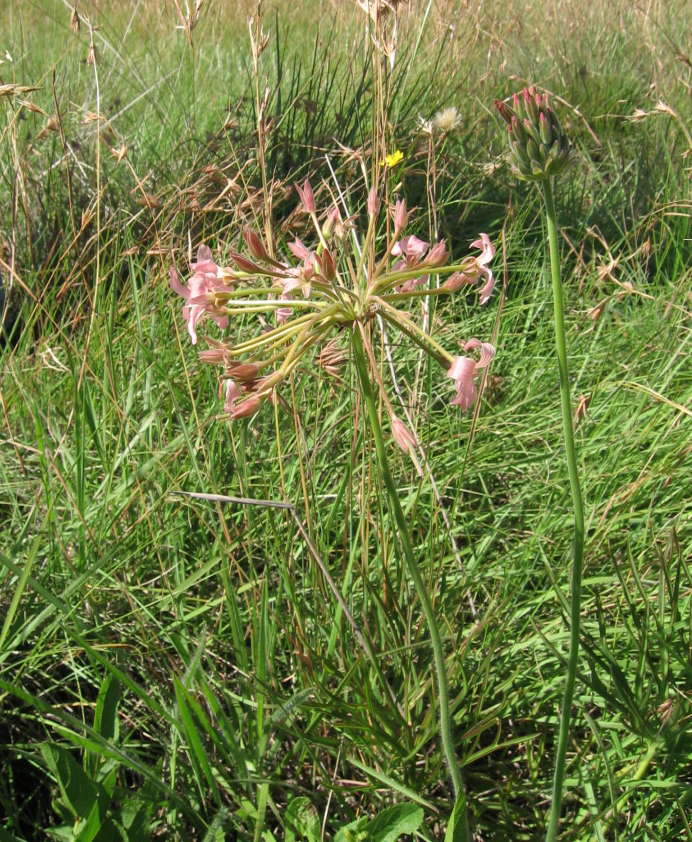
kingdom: Plantae
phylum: Tracheophyta
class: Magnoliopsida
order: Geraniales
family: Geraniaceae
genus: Pelargonium
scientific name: Pelargonium luridum
